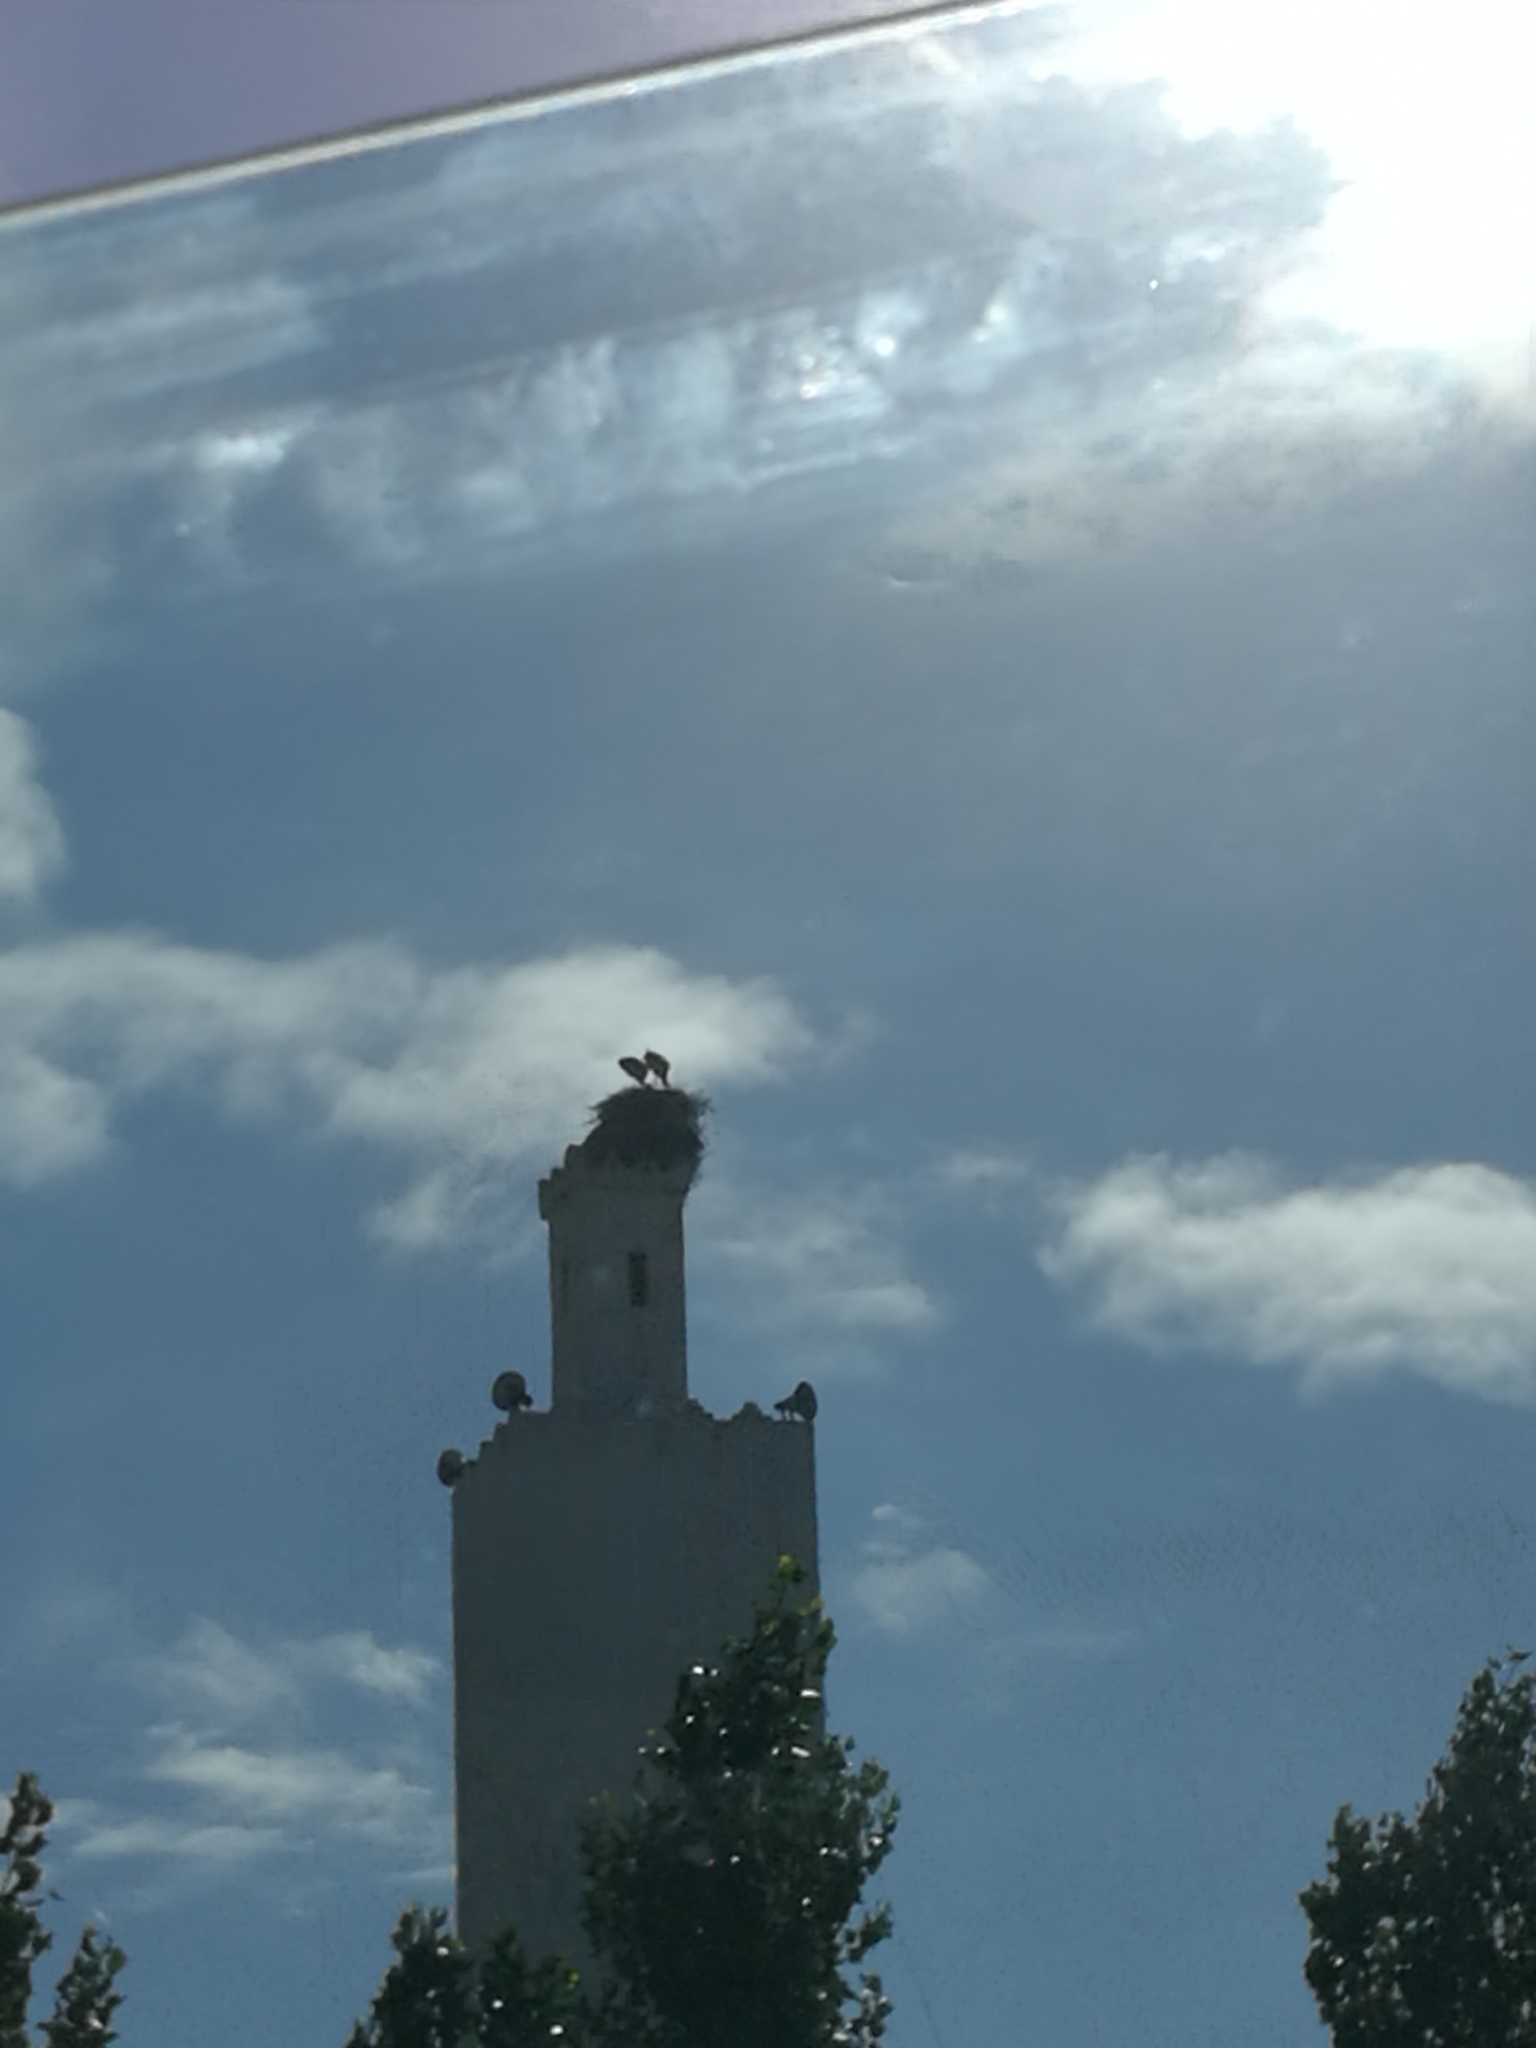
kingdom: Animalia
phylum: Chordata
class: Aves
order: Ciconiiformes
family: Ciconiidae
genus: Ciconia
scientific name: Ciconia ciconia
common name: White stork
